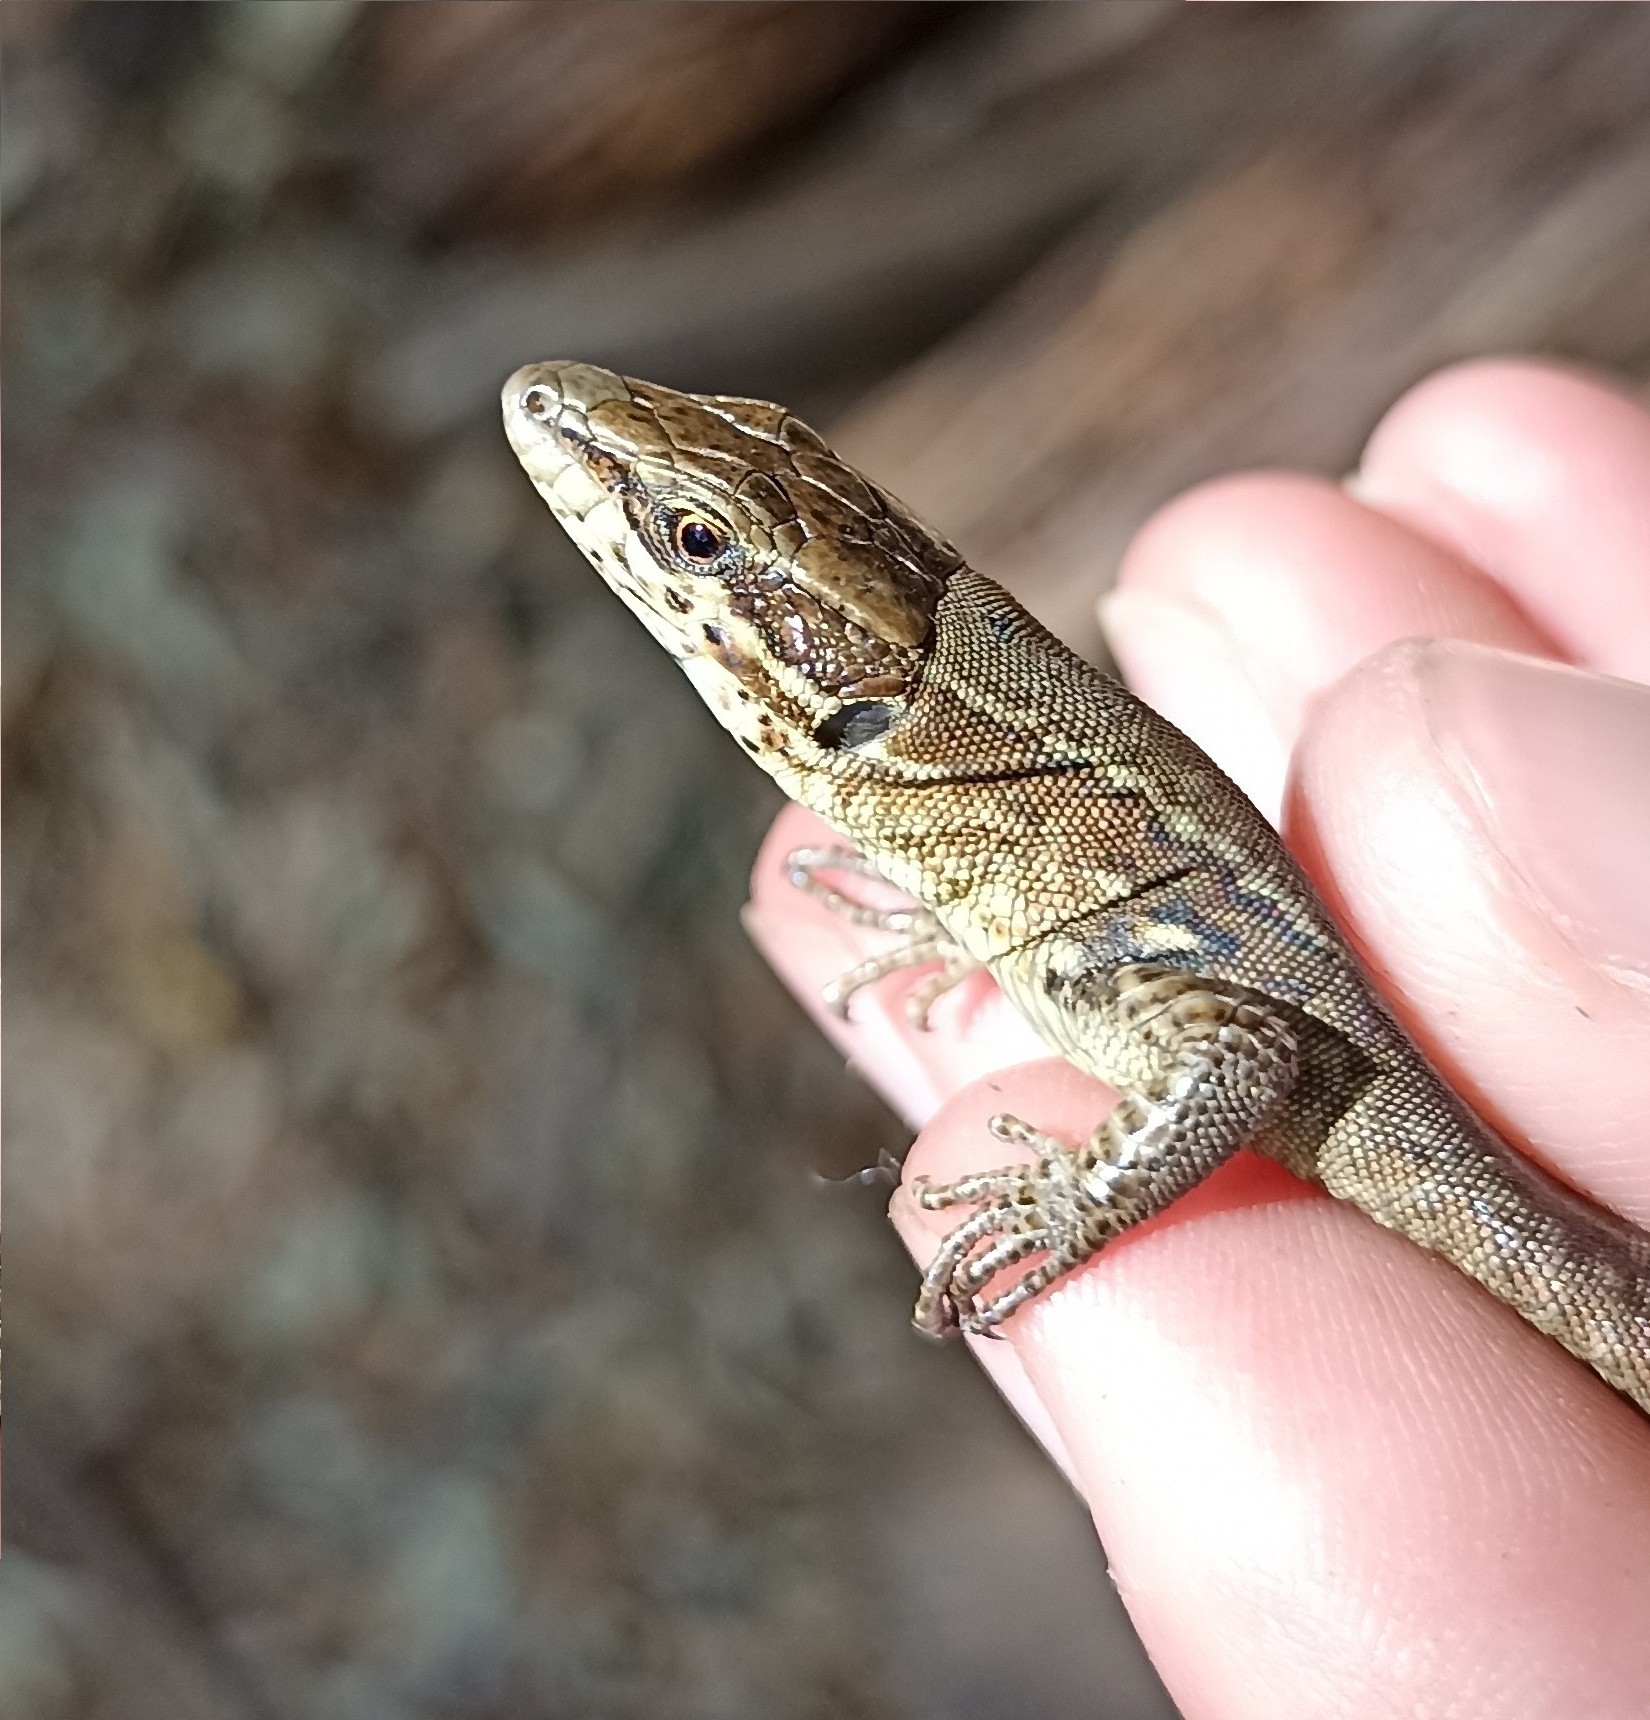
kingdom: Animalia
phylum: Chordata
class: Squamata
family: Lacertidae
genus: Podarcis
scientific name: Podarcis muralis
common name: Common wall lizard
